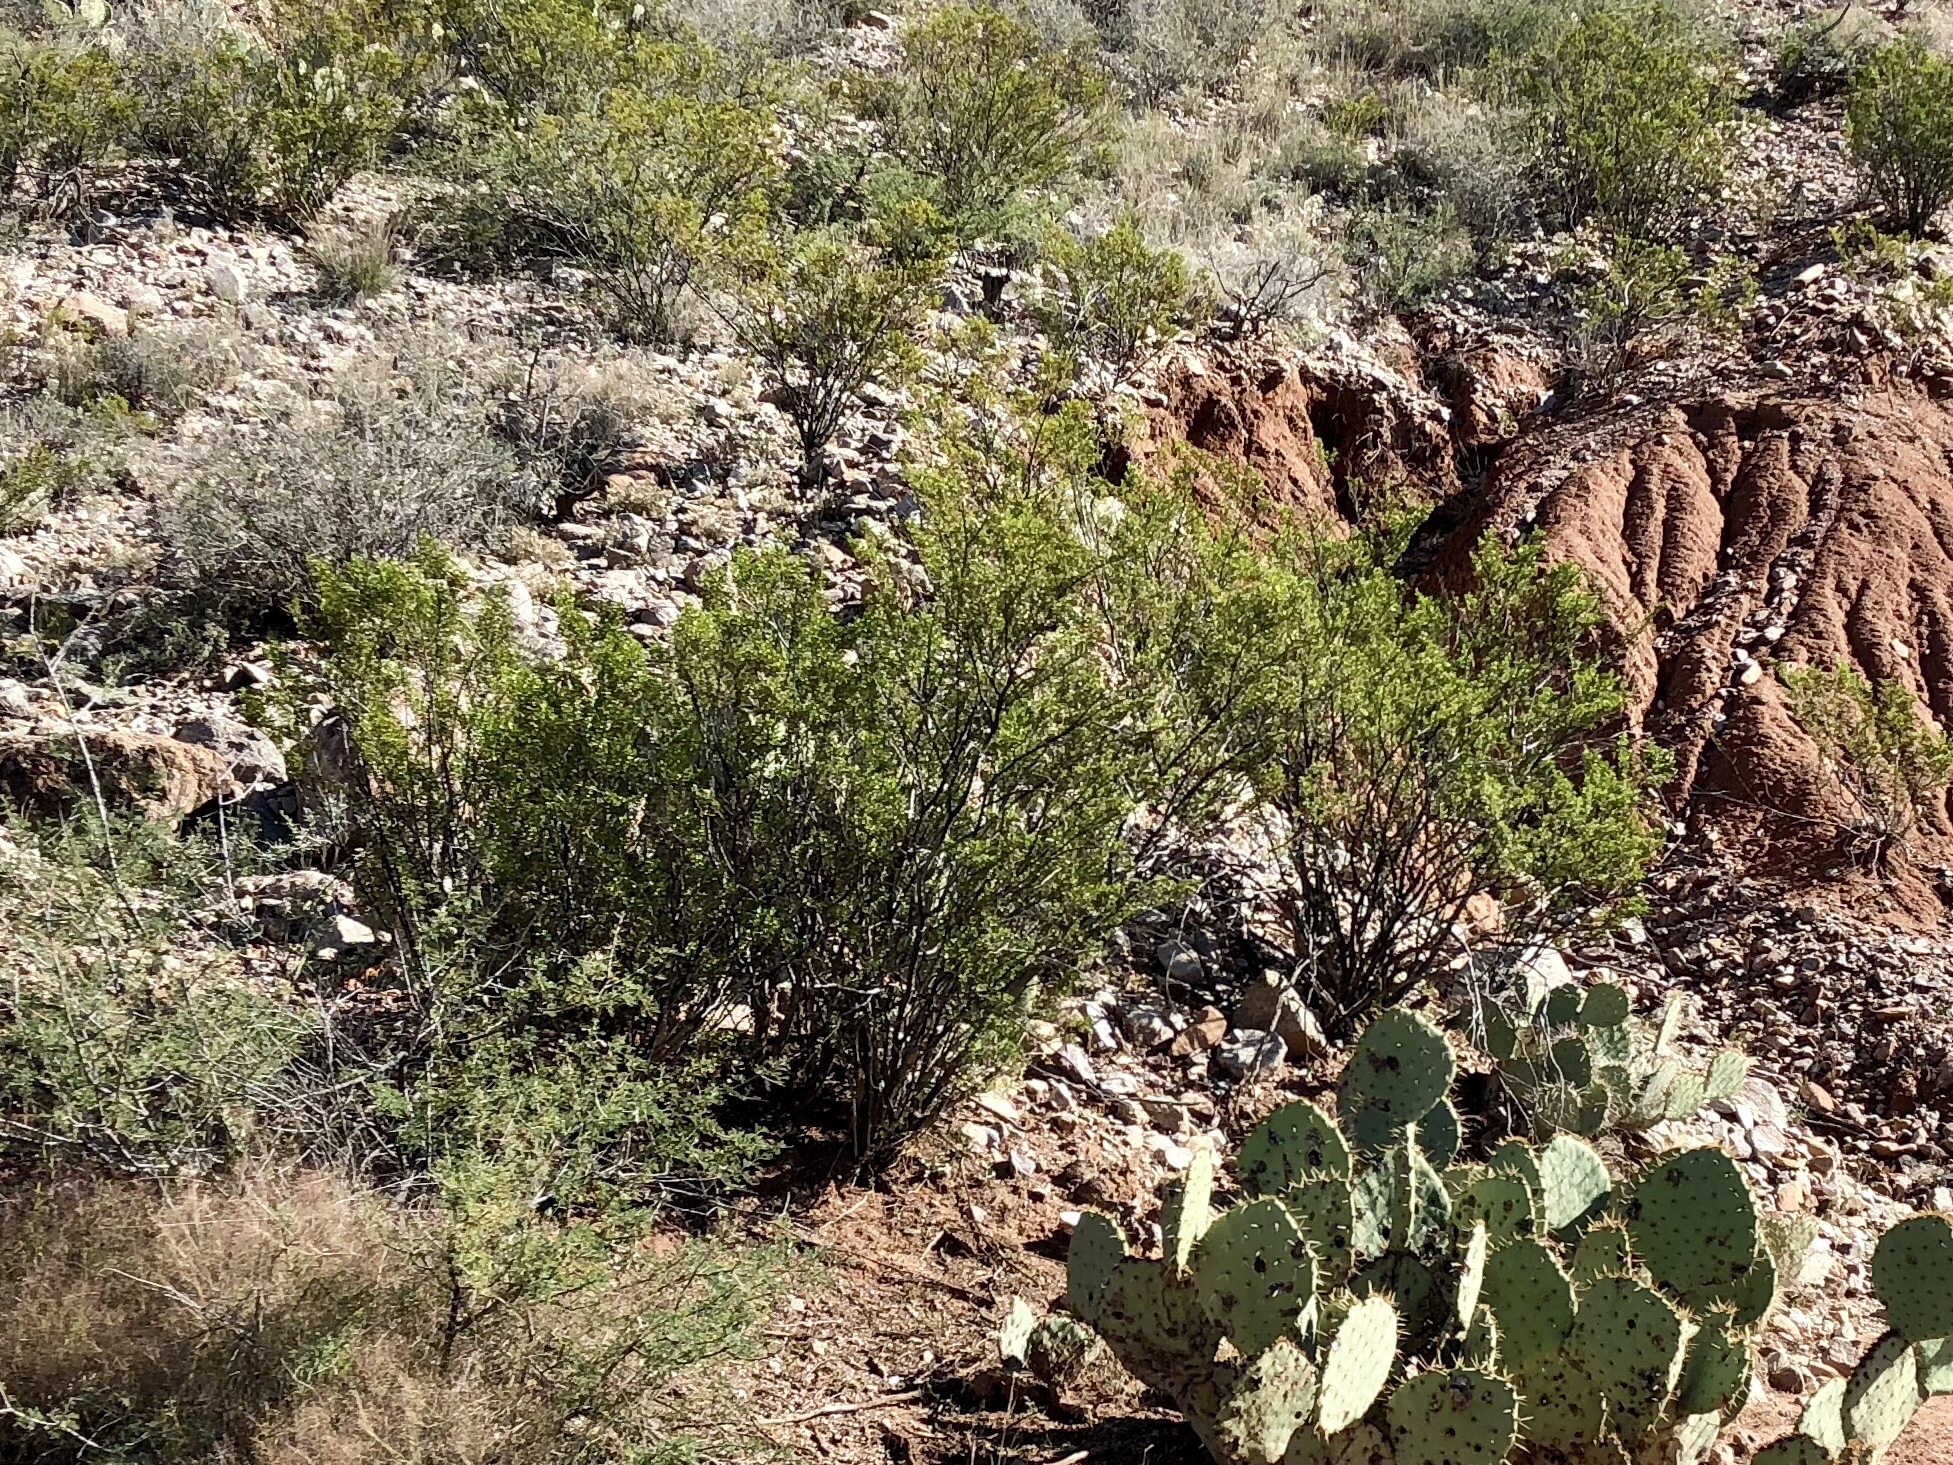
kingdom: Plantae
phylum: Tracheophyta
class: Magnoliopsida
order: Zygophyllales
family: Zygophyllaceae
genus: Larrea
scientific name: Larrea tridentata
